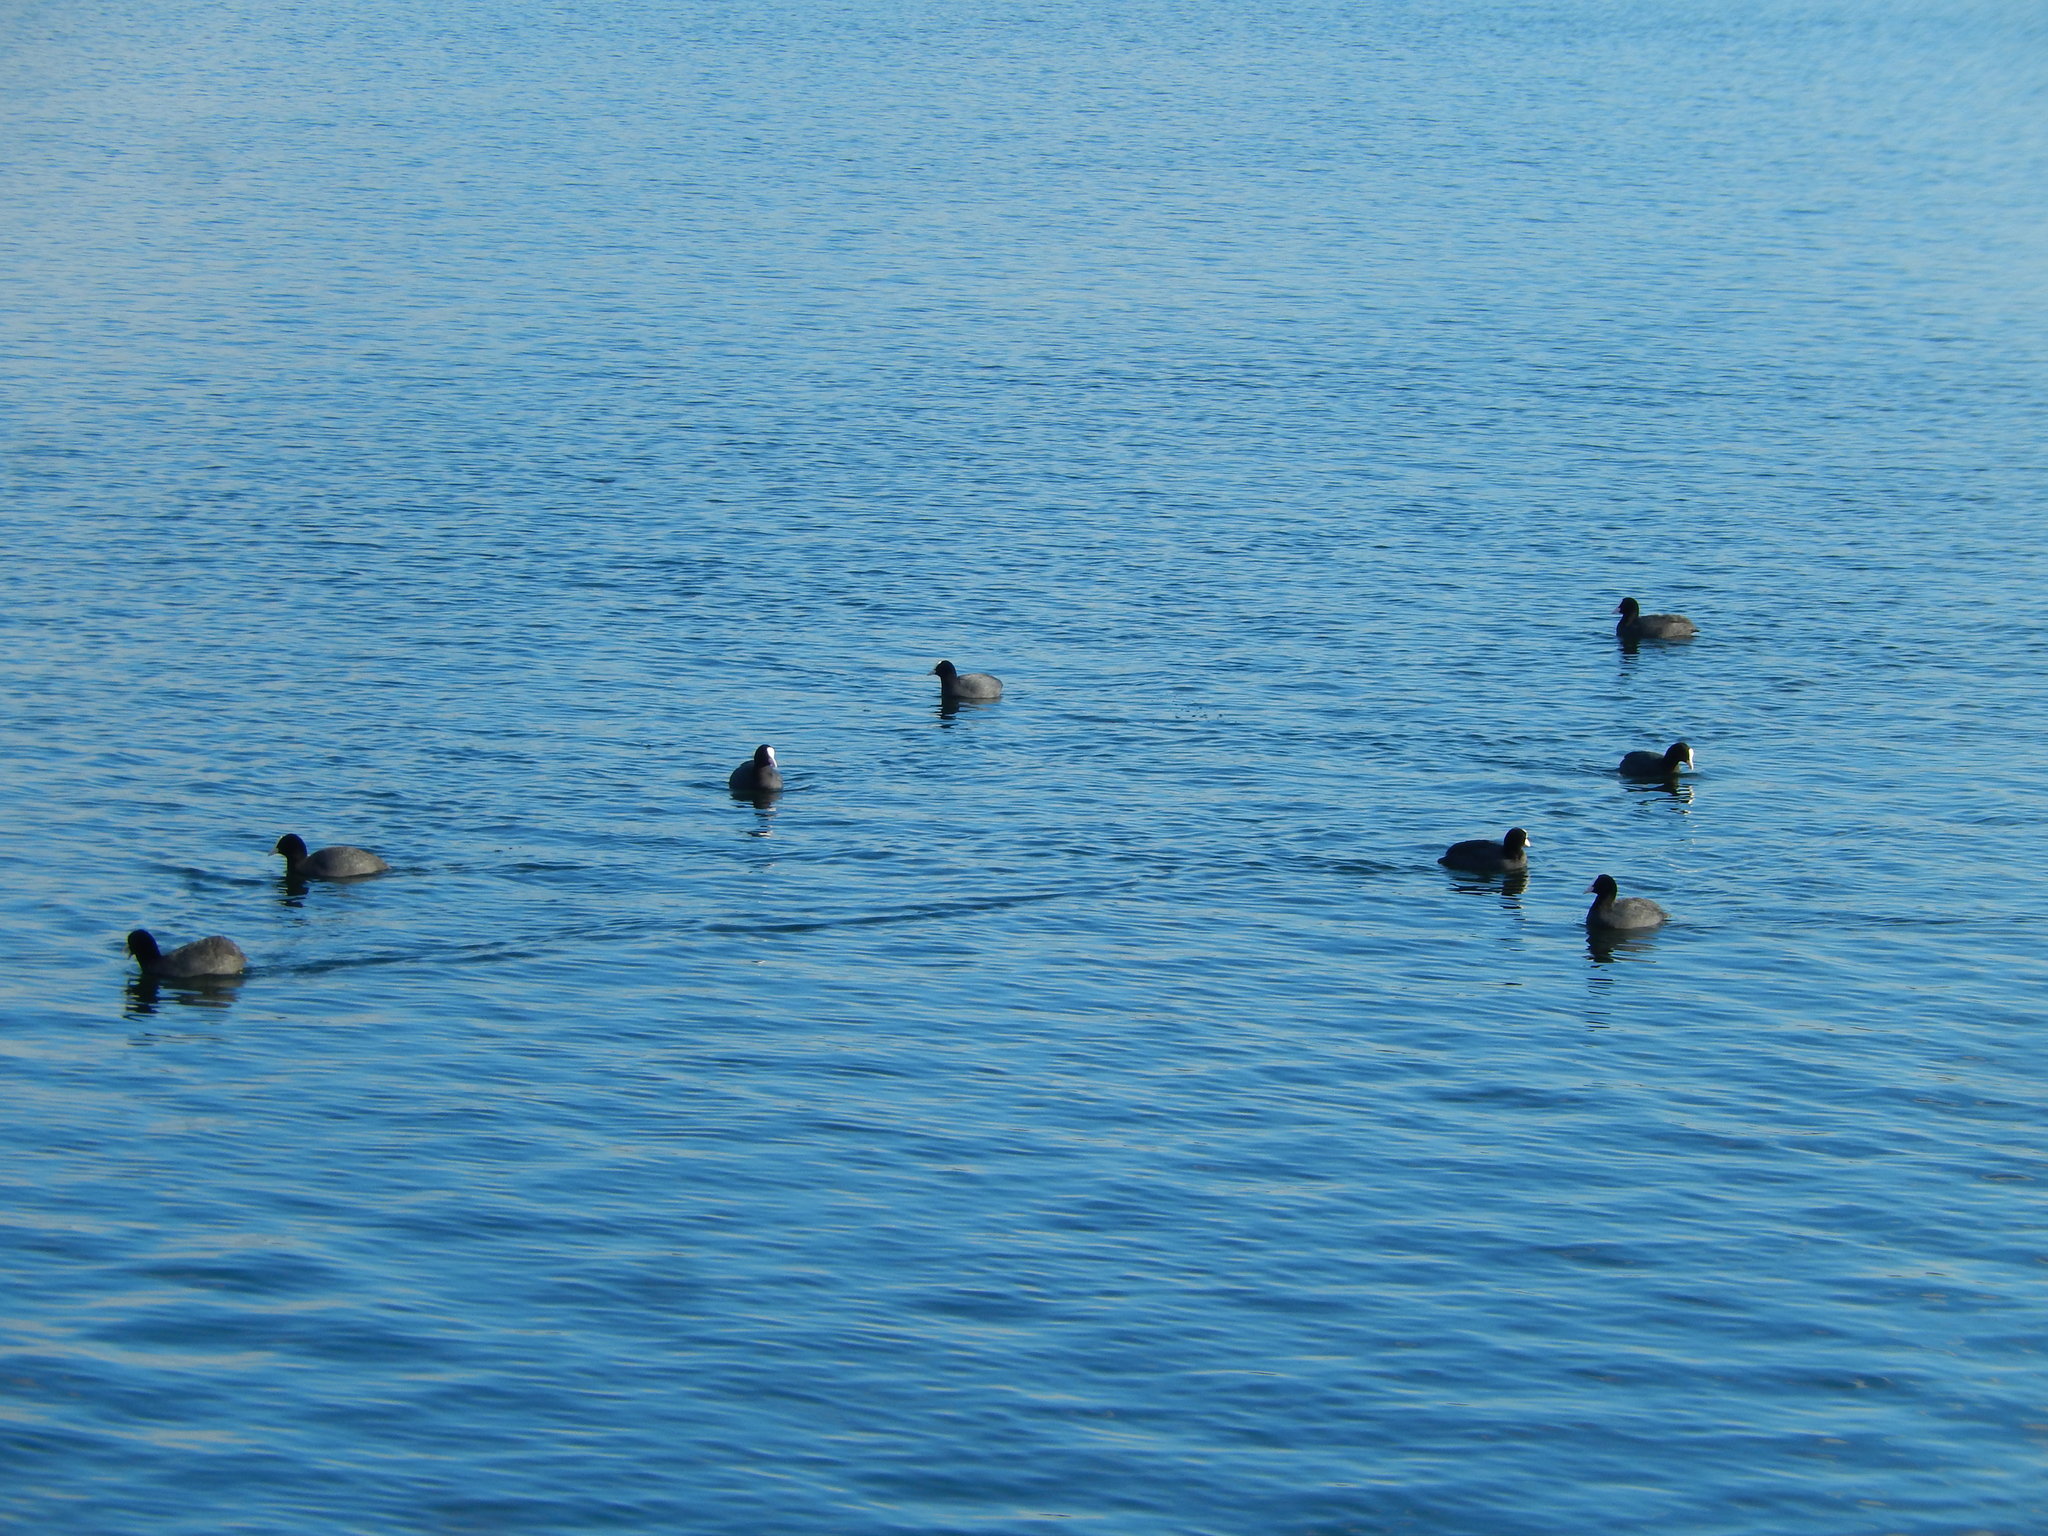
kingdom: Animalia
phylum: Chordata
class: Aves
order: Gruiformes
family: Rallidae
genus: Fulica
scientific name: Fulica atra
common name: Eurasian coot
